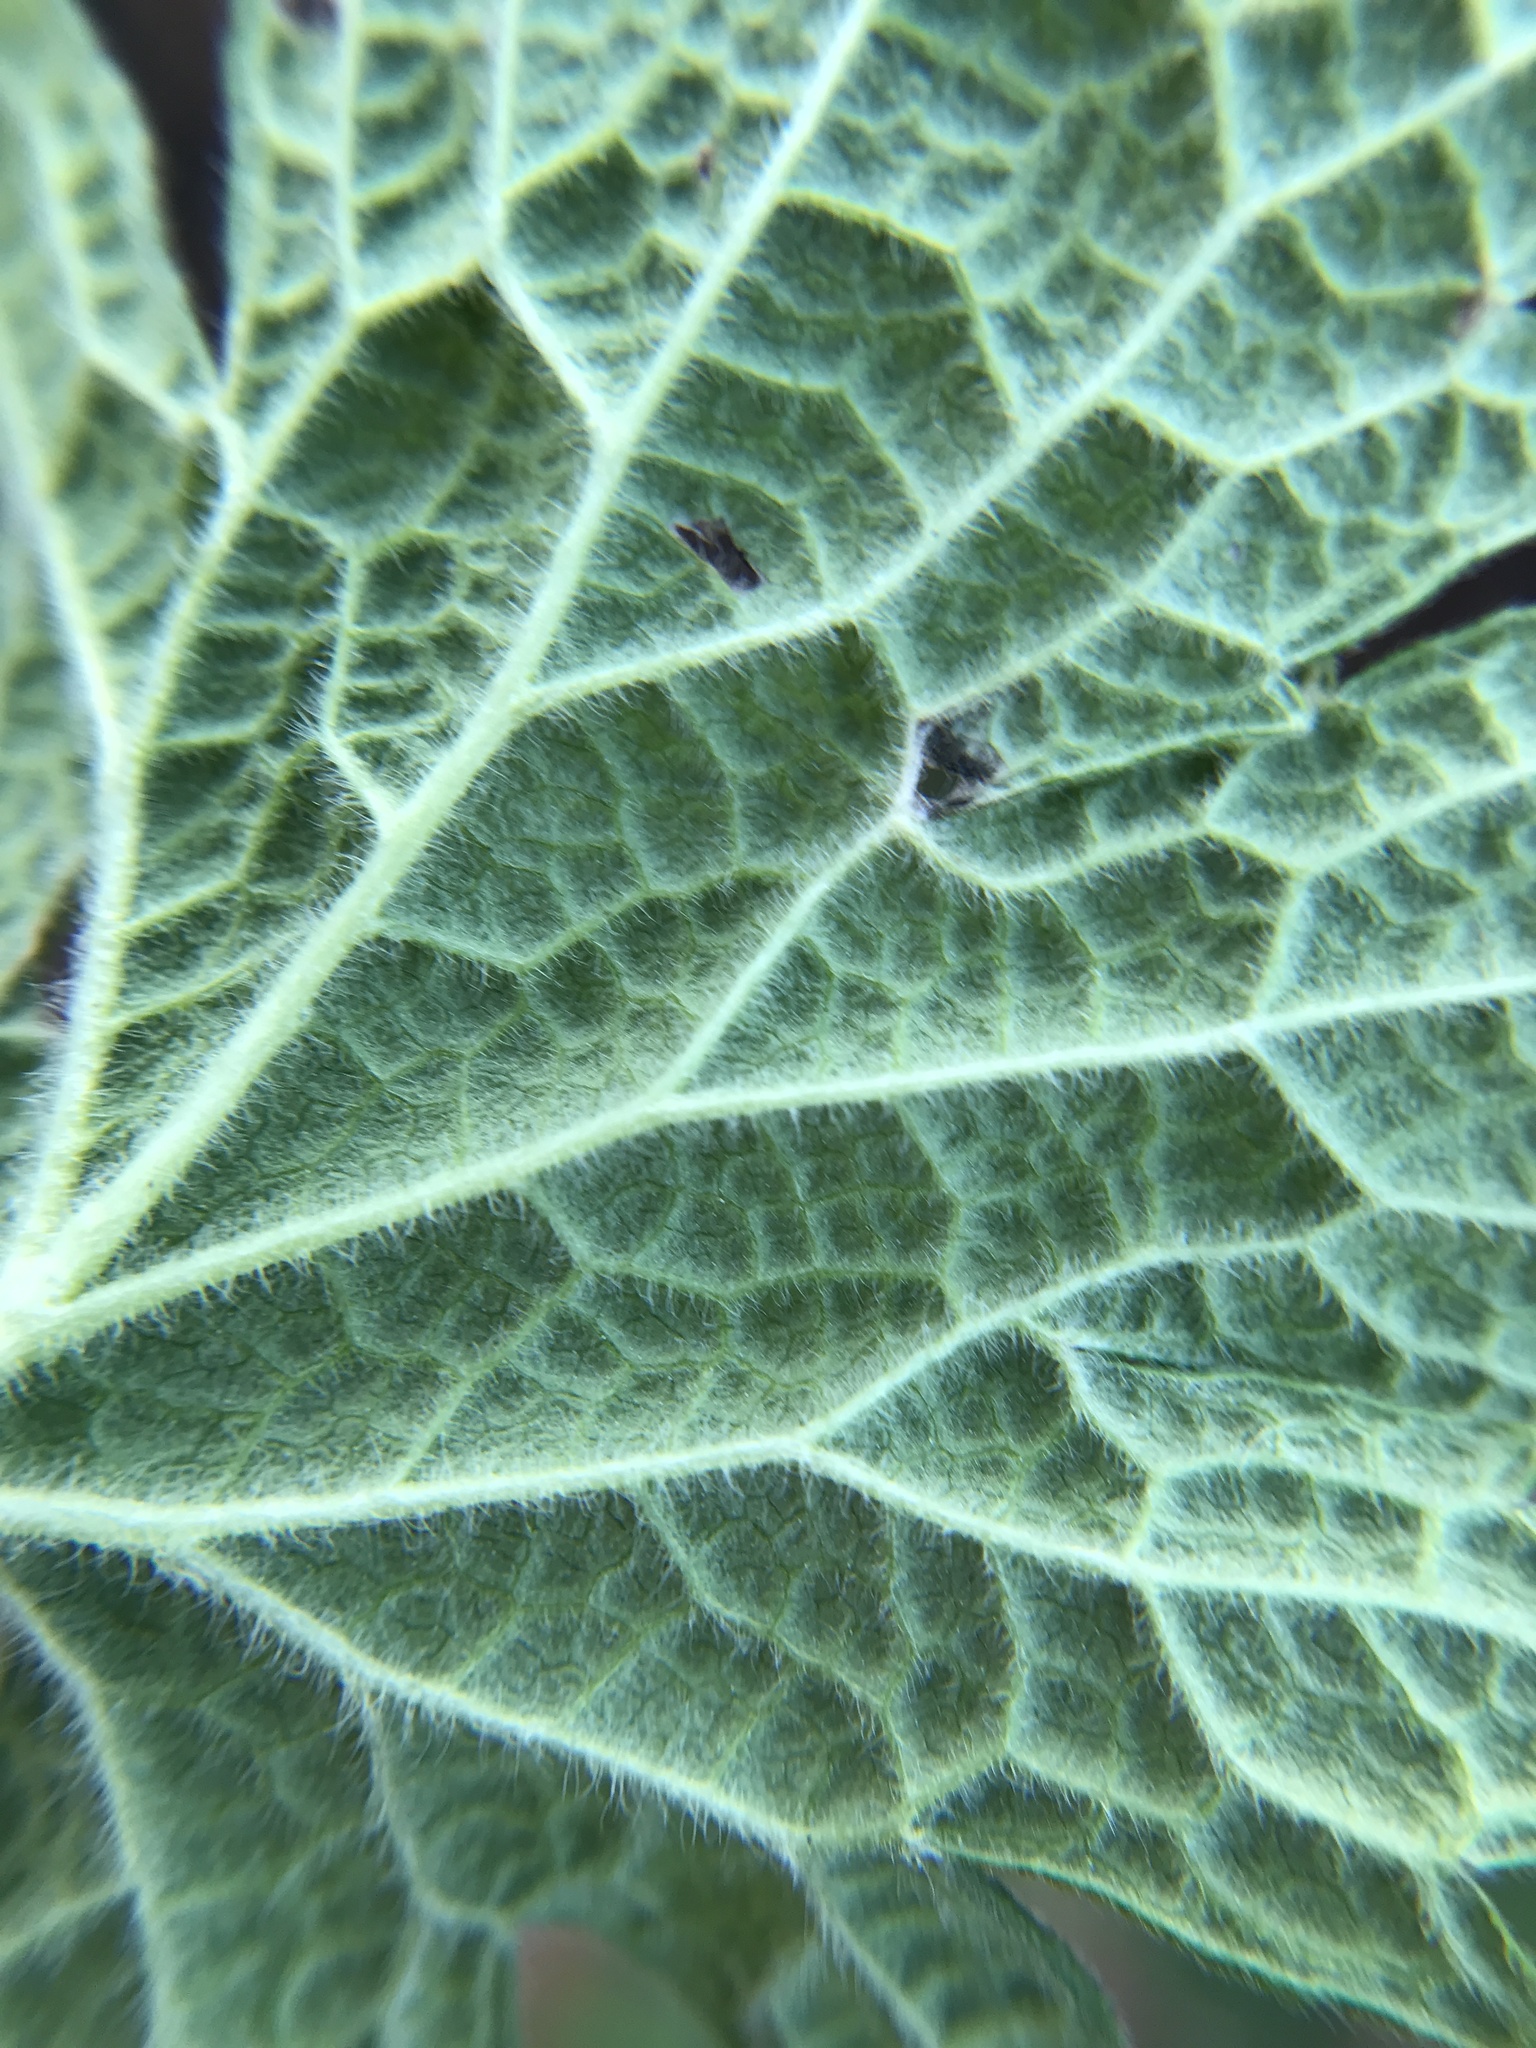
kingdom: Plantae
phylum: Tracheophyta
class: Magnoliopsida
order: Lamiales
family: Lamiaceae
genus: Leonurus
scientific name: Leonurus cardiaca
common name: Motherwort
